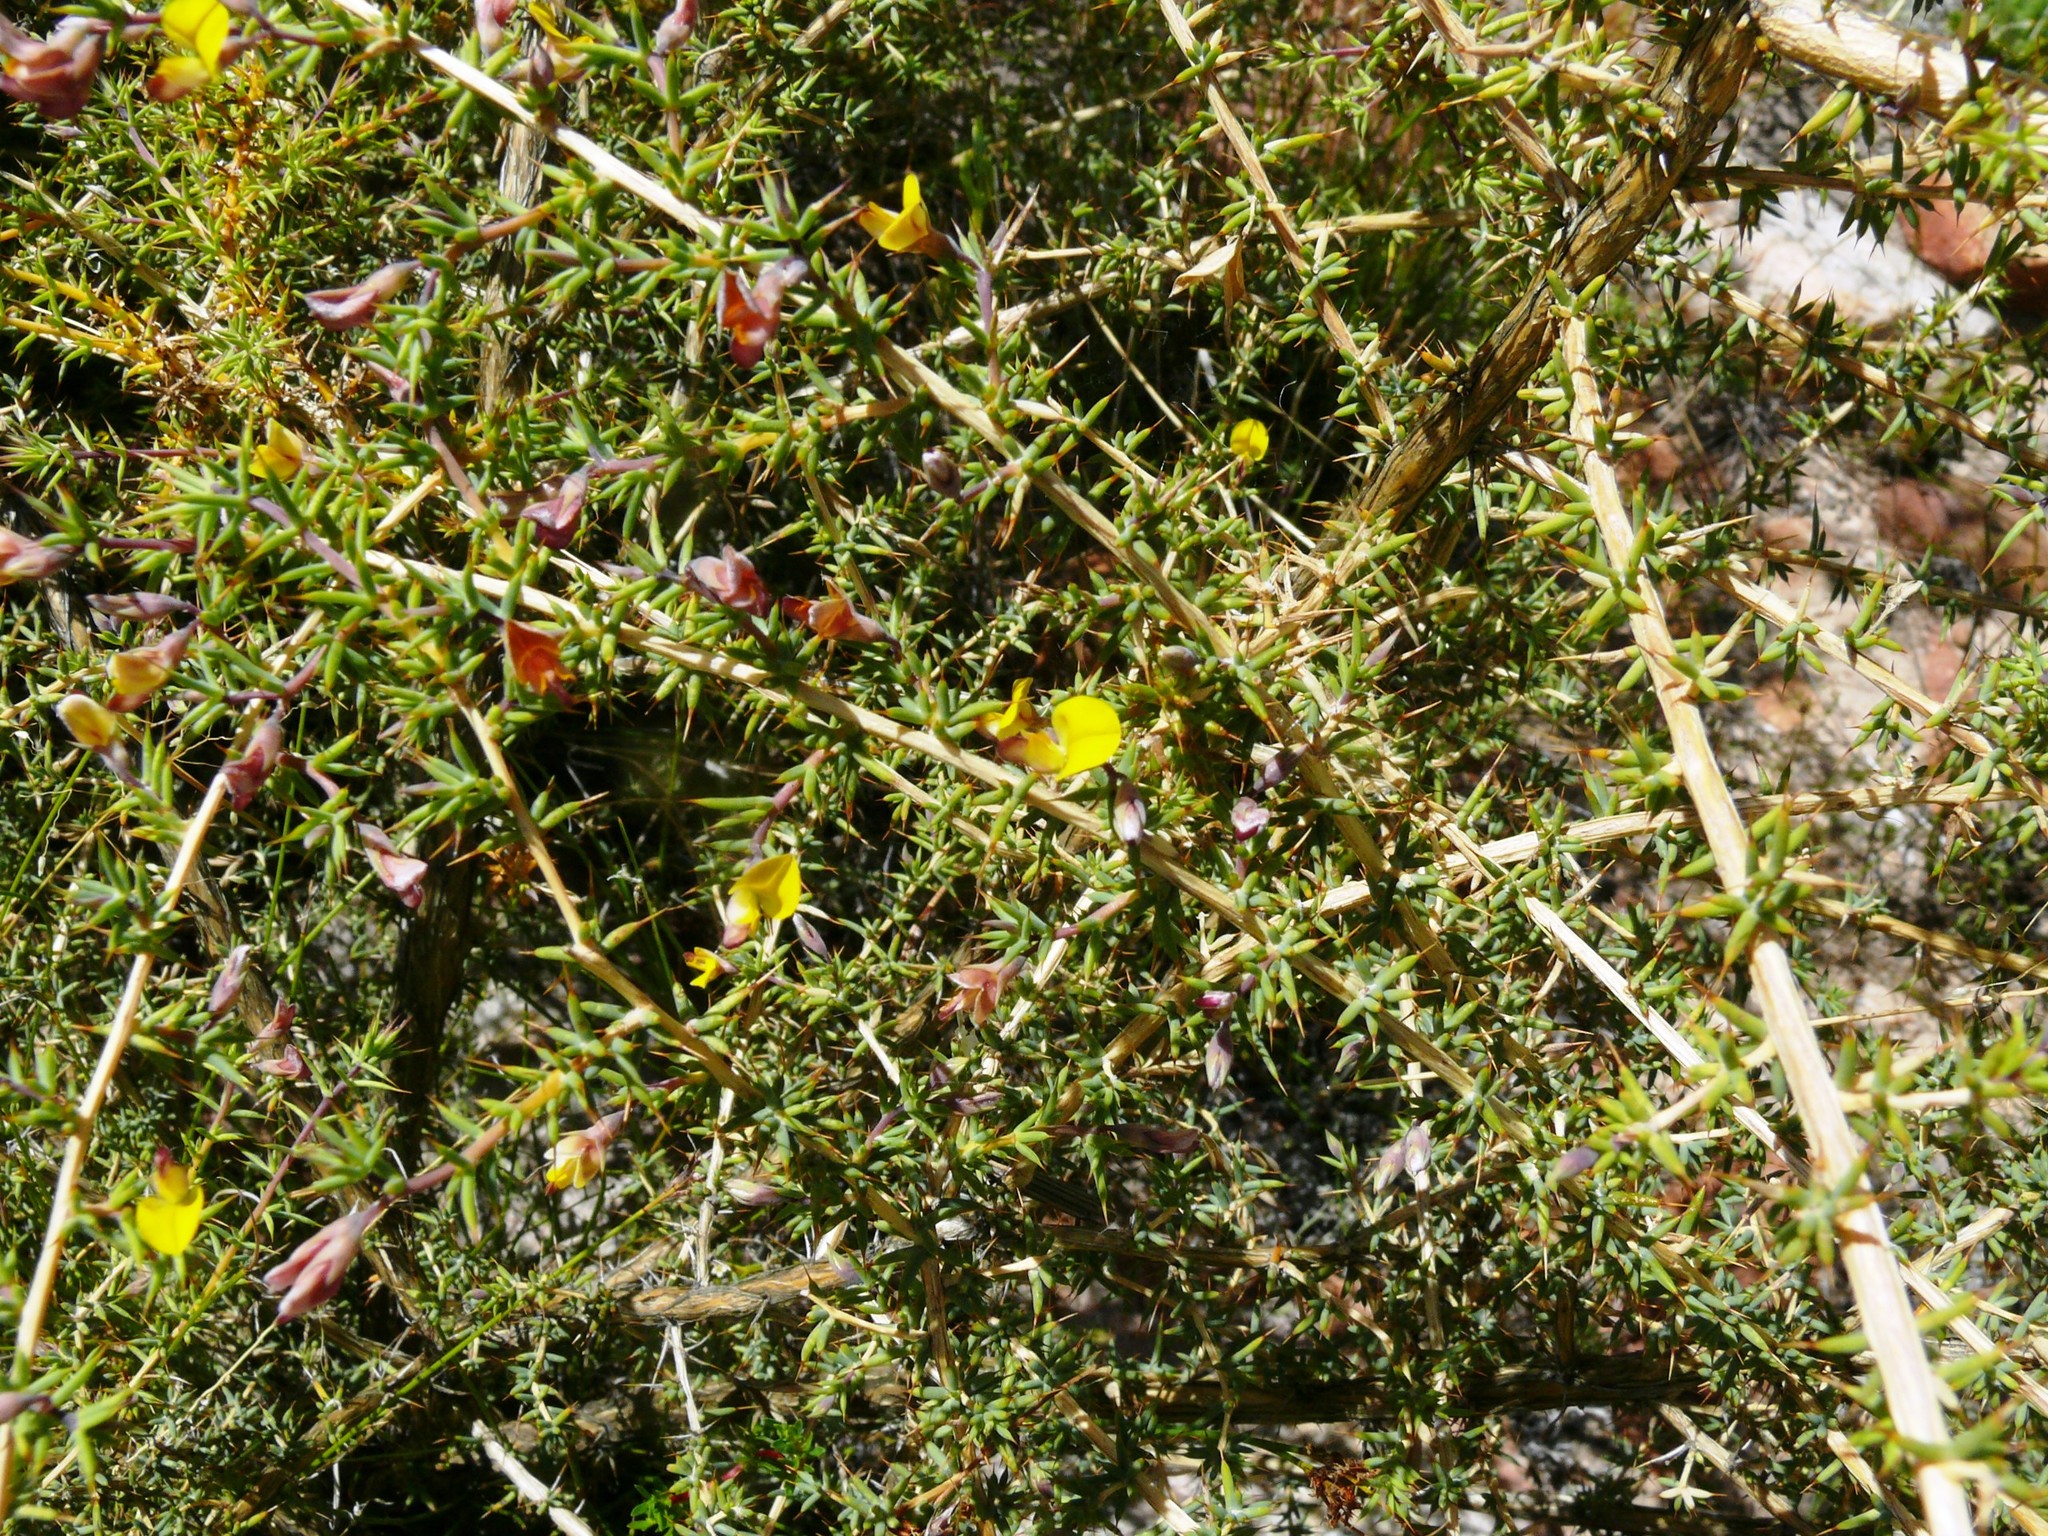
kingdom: Plantae
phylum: Tracheophyta
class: Magnoliopsida
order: Fabales
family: Fabaceae
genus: Aspalathus
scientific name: Aspalathus aristata
